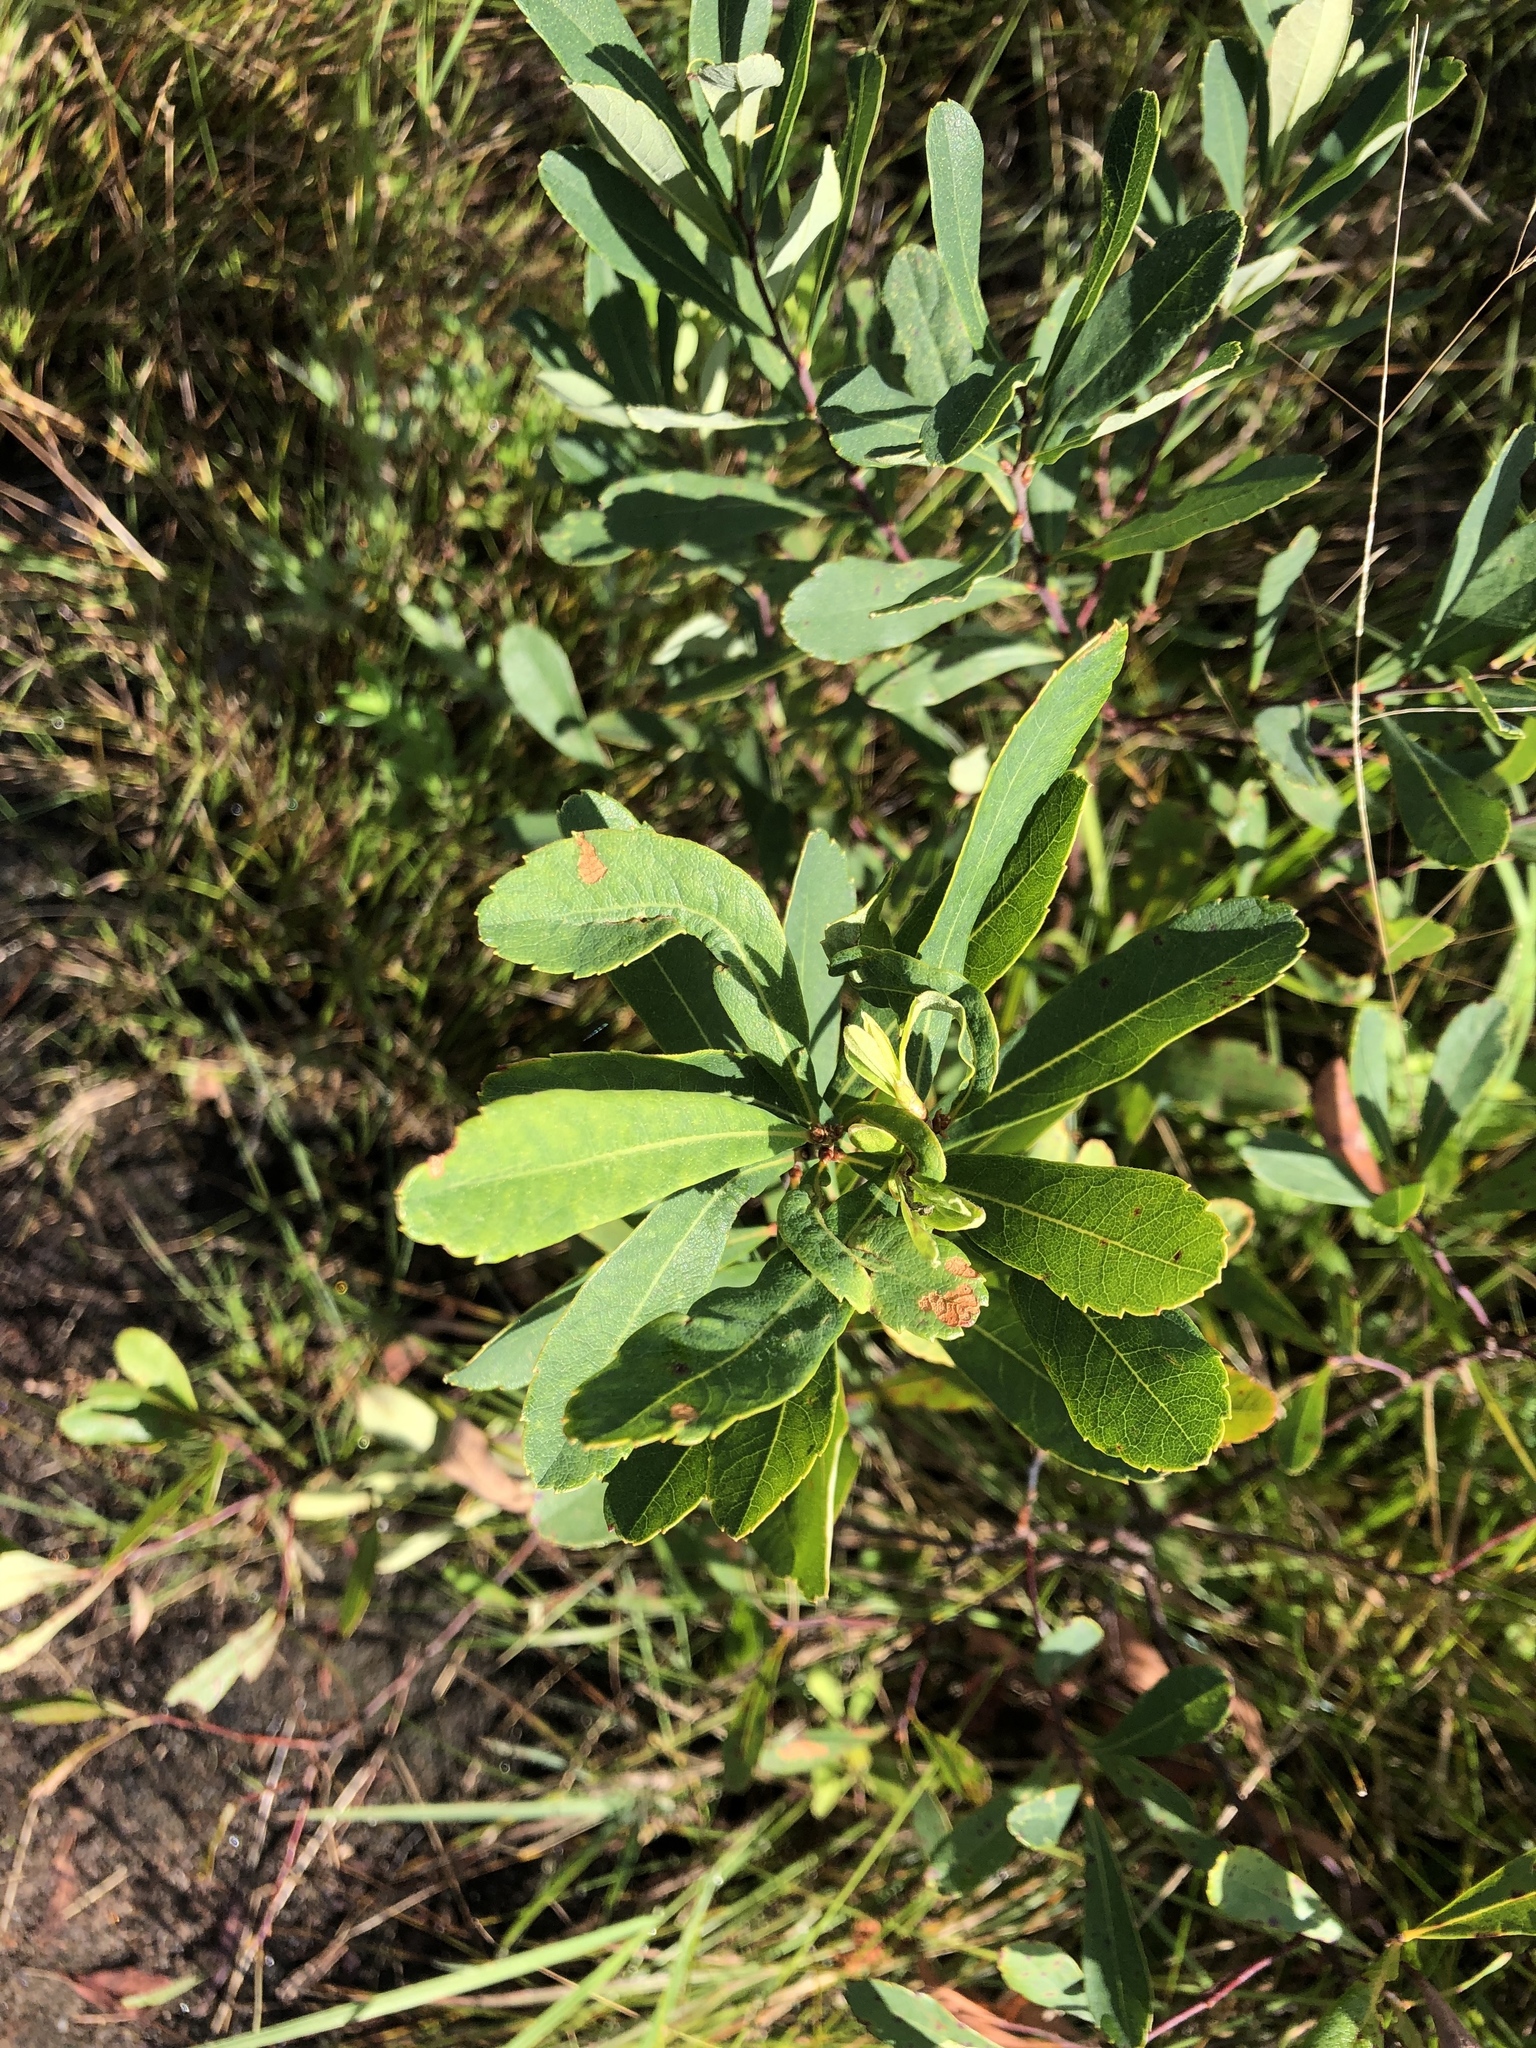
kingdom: Plantae
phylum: Tracheophyta
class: Magnoliopsida
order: Fagales
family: Myricaceae
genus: Myrica
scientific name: Myrica gale
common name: Sweet gale
